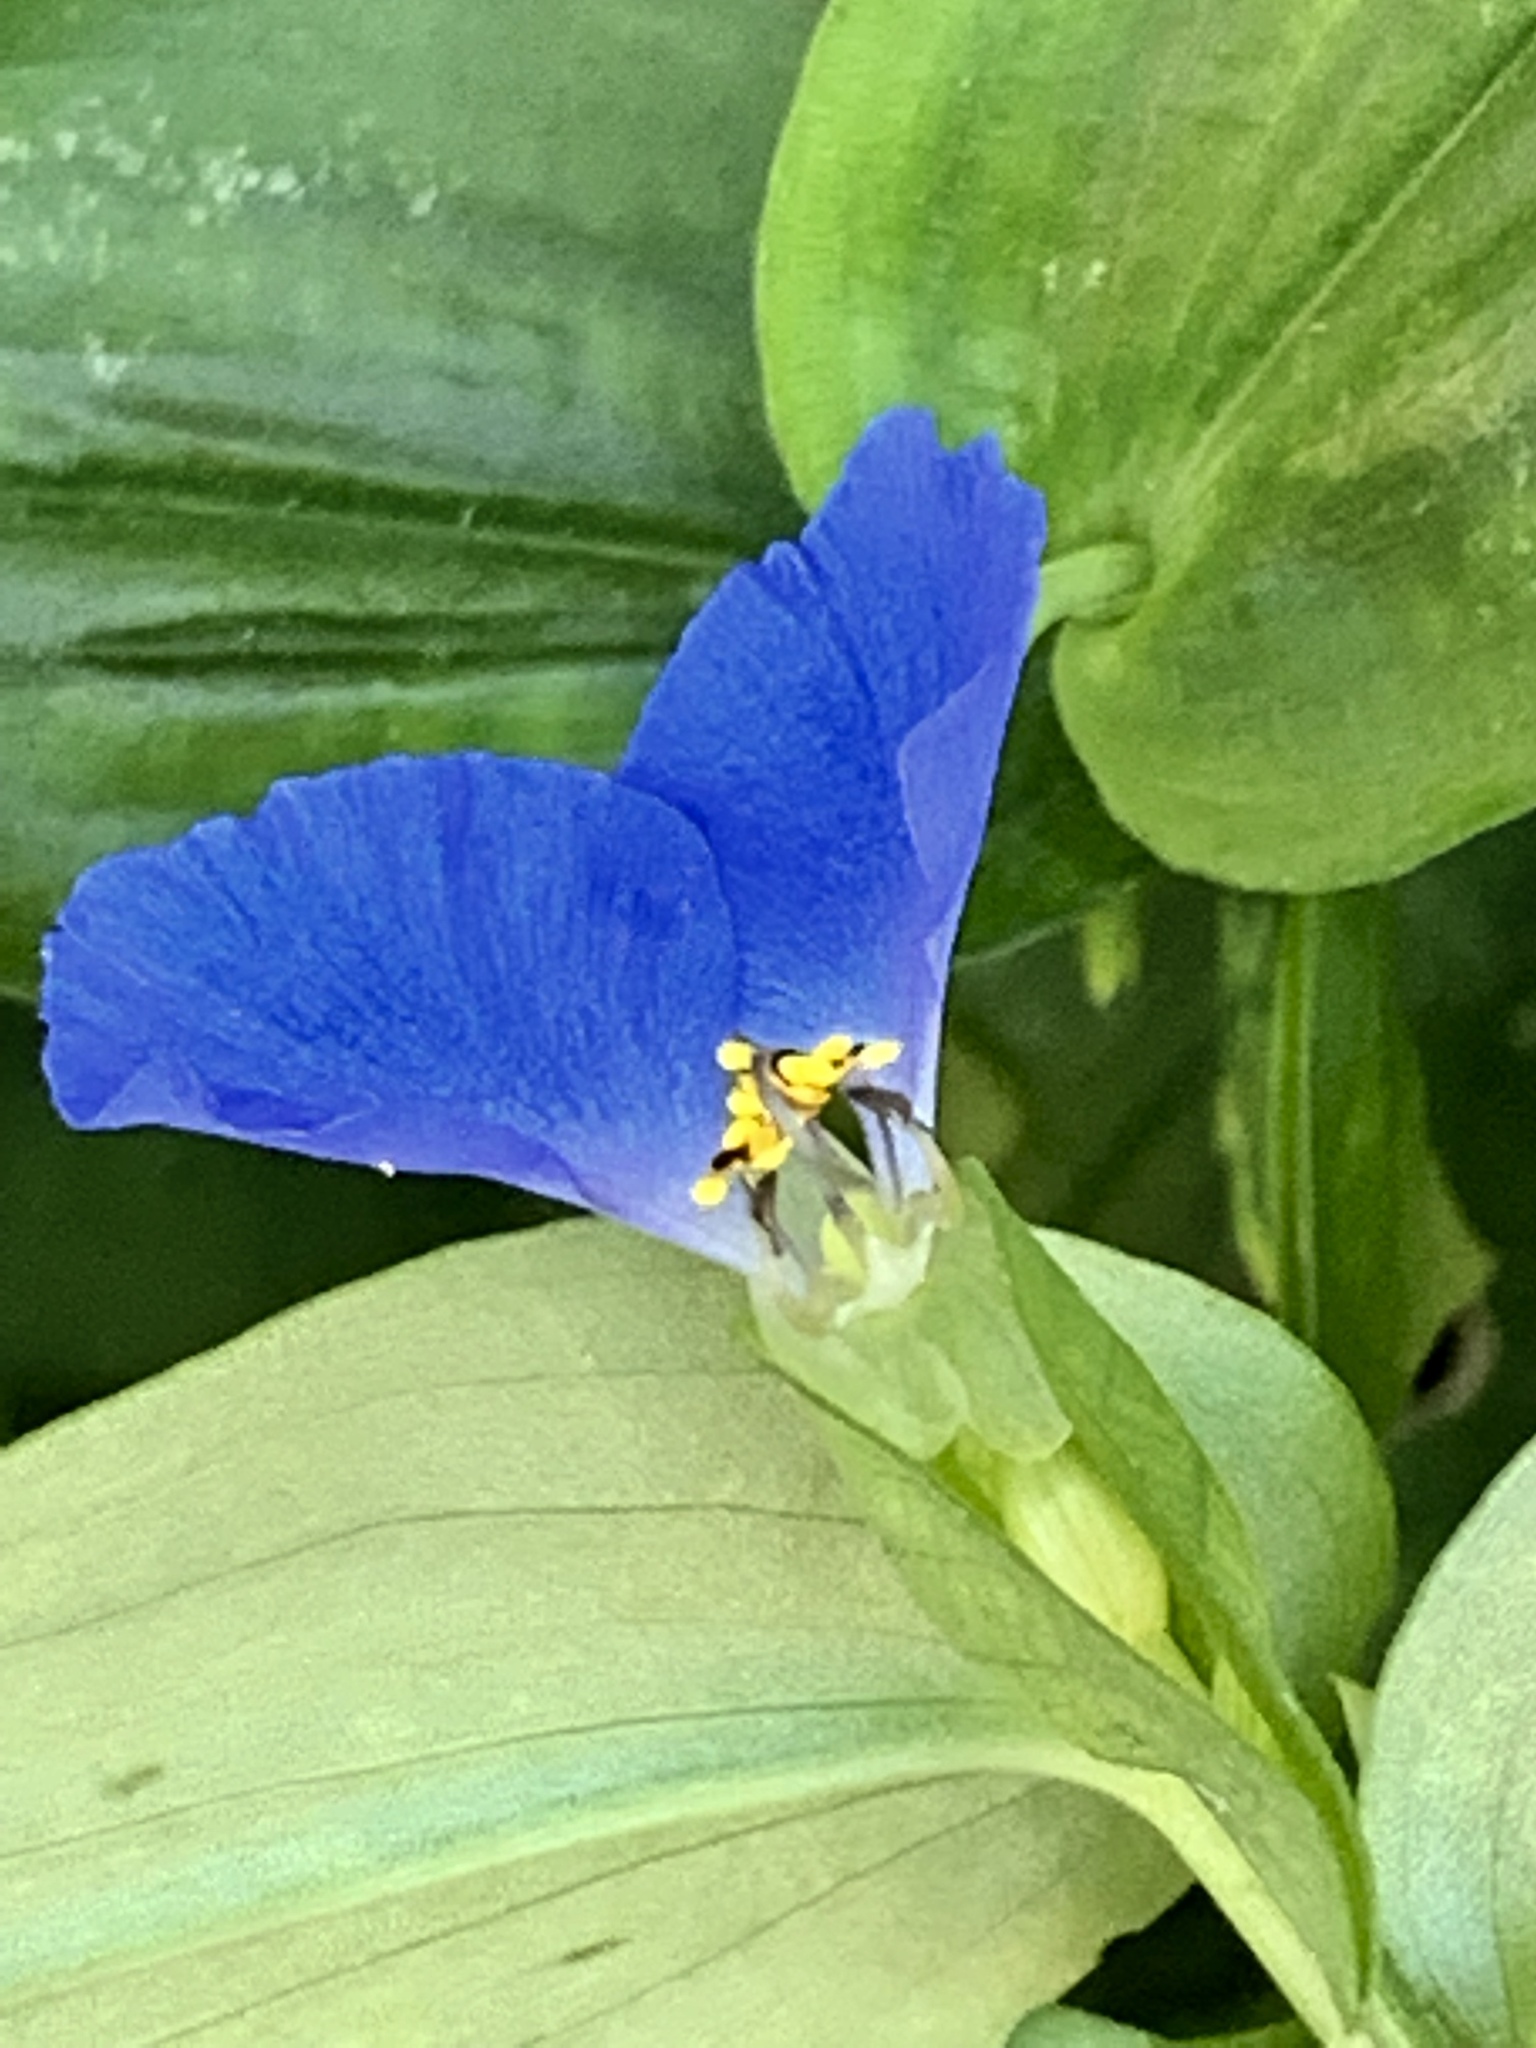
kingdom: Plantae
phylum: Tracheophyta
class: Liliopsida
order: Commelinales
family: Commelinaceae
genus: Commelina
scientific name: Commelina communis
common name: Asiatic dayflower
